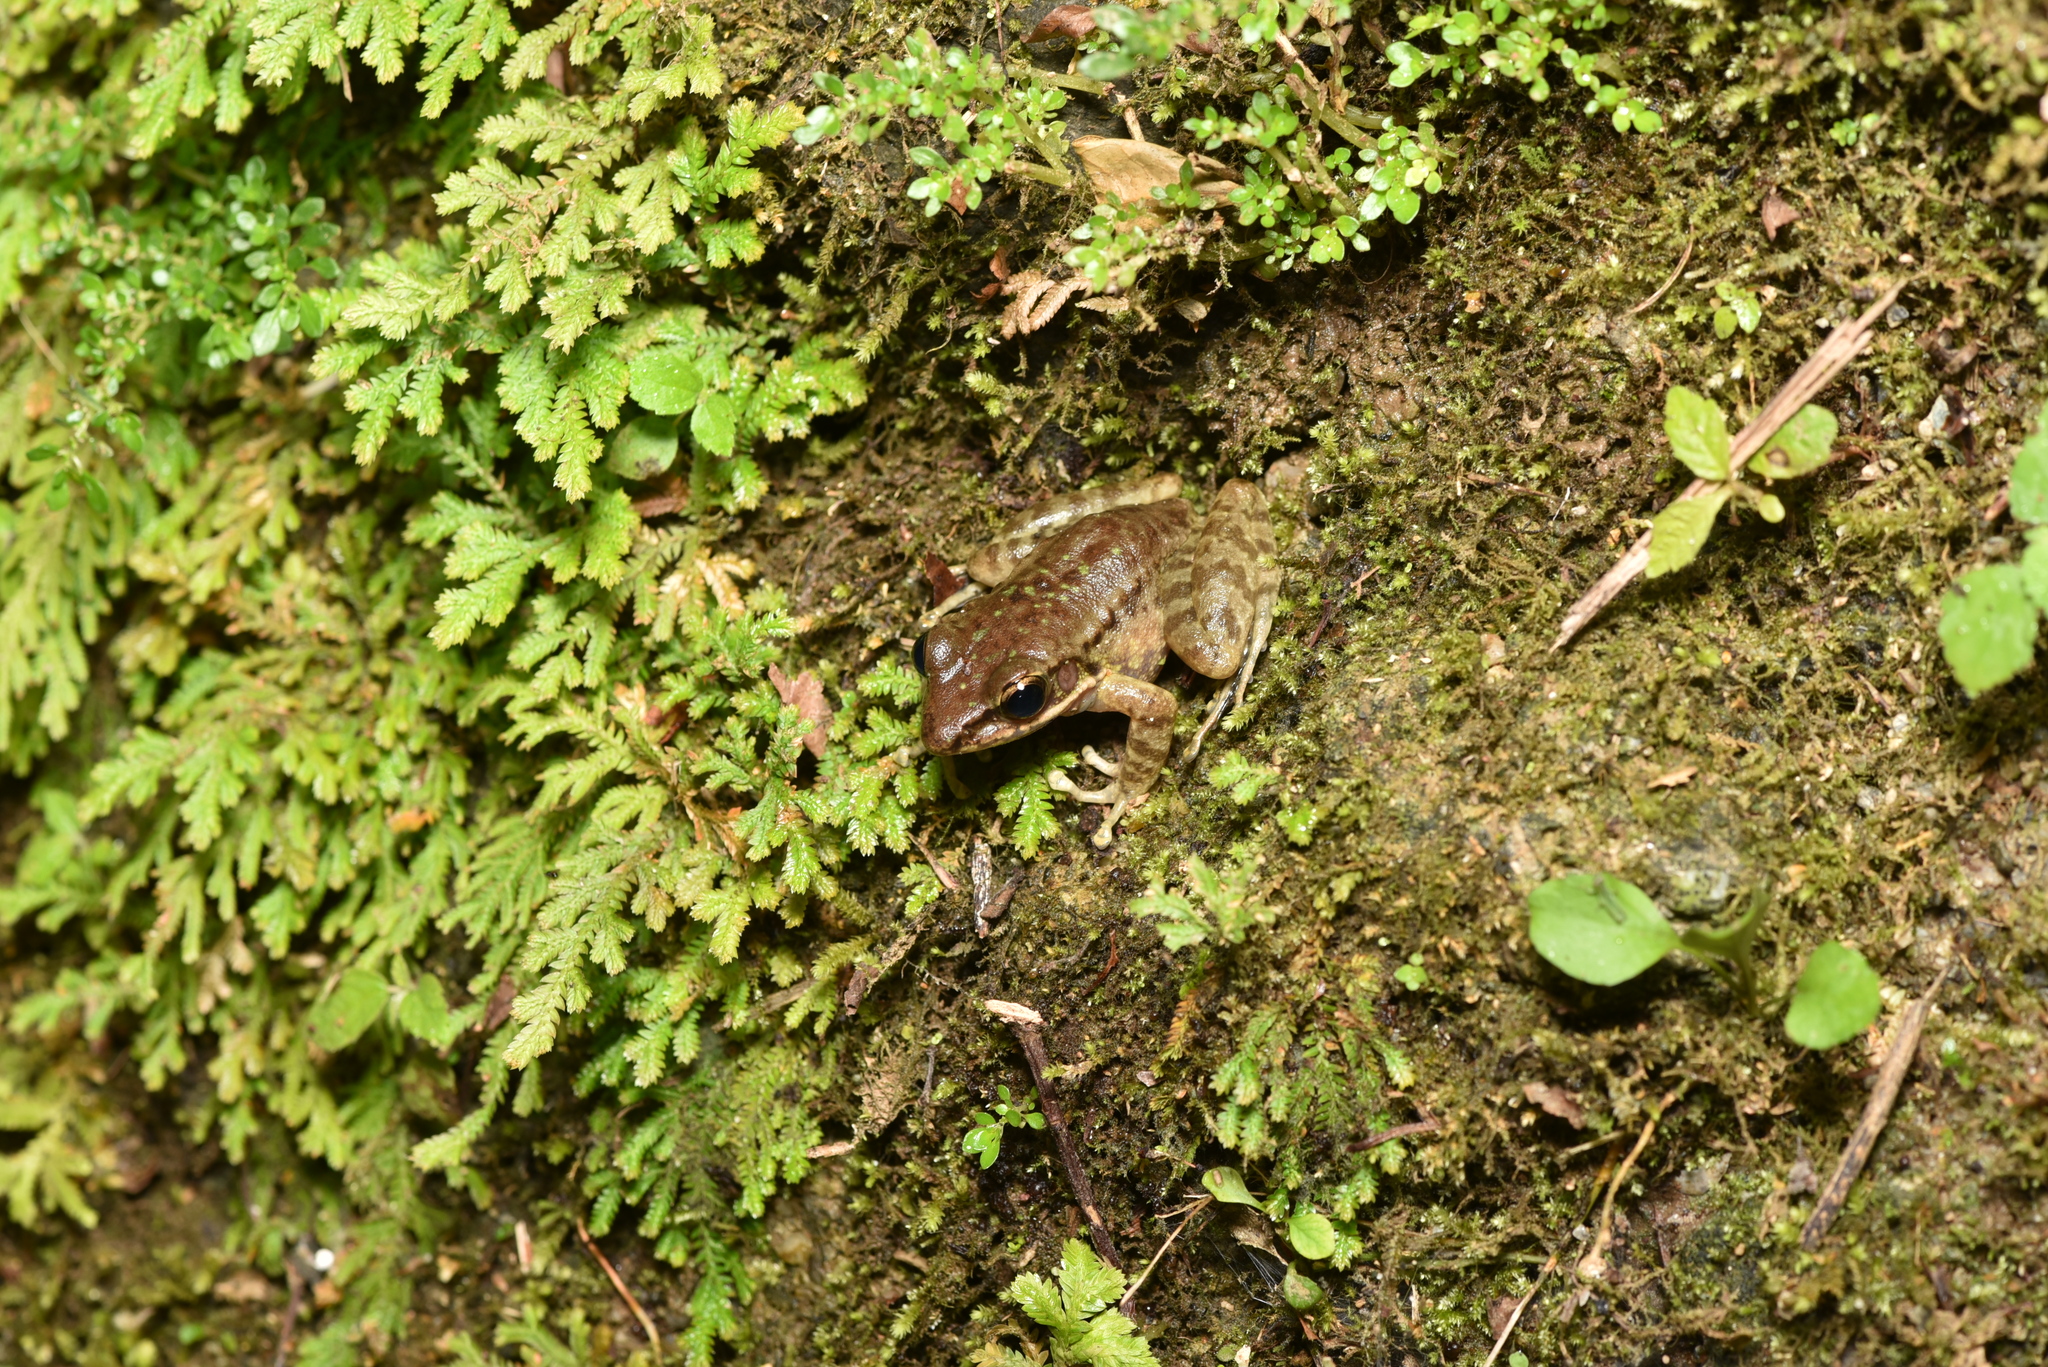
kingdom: Animalia
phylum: Chordata
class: Amphibia
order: Anura
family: Ranidae
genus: Odorrana
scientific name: Odorrana swinhoana
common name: Bangkimtsing frog
